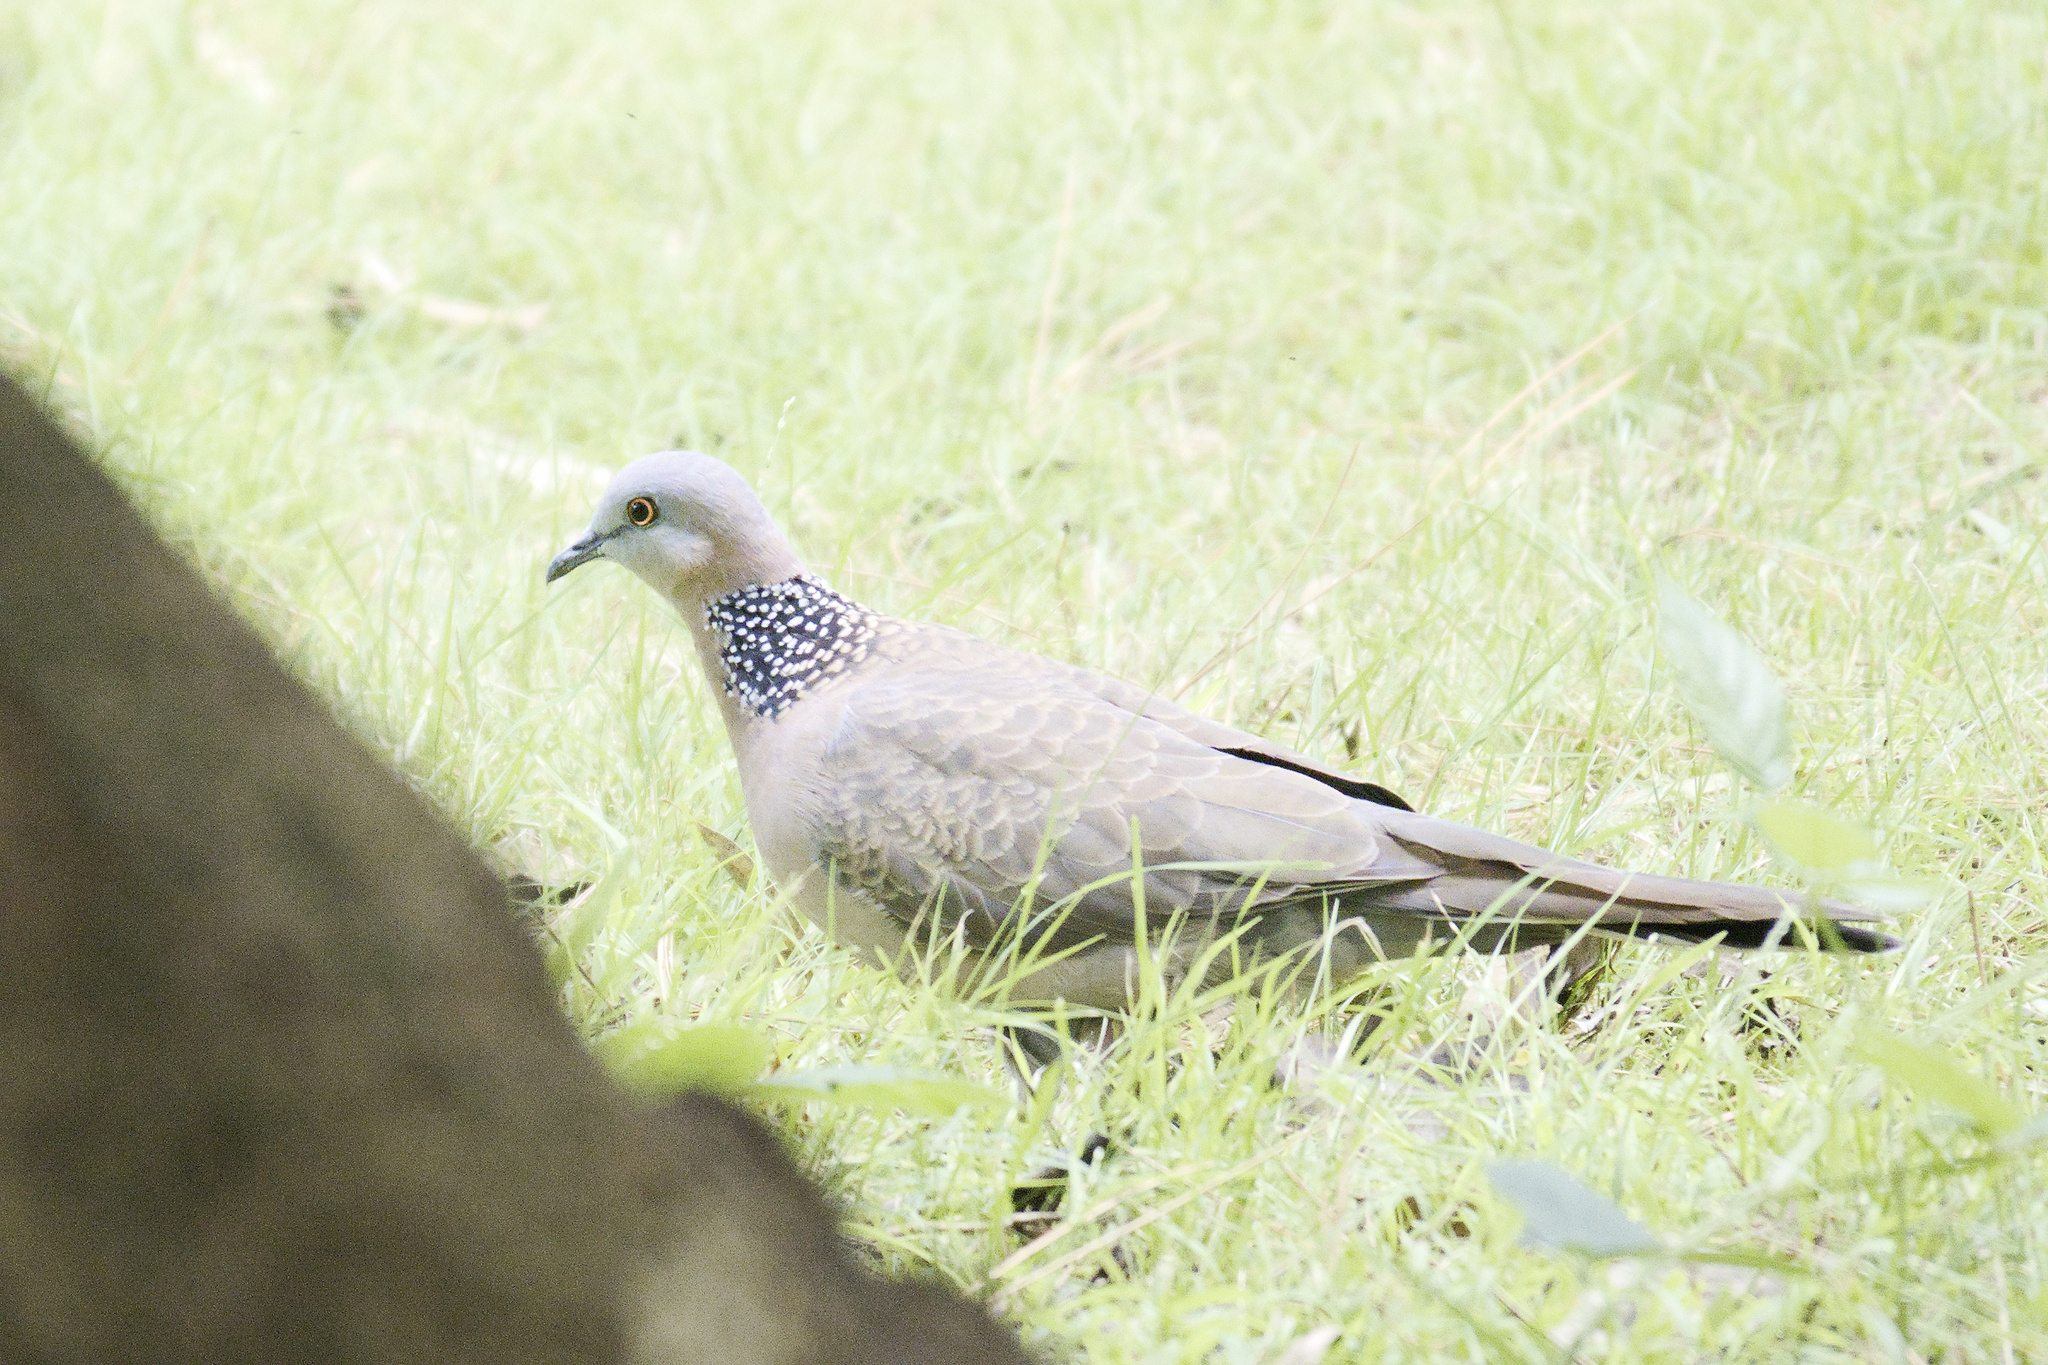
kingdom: Animalia
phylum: Chordata
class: Aves
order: Columbiformes
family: Columbidae
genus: Spilopelia
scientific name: Spilopelia chinensis
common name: Spotted dove
